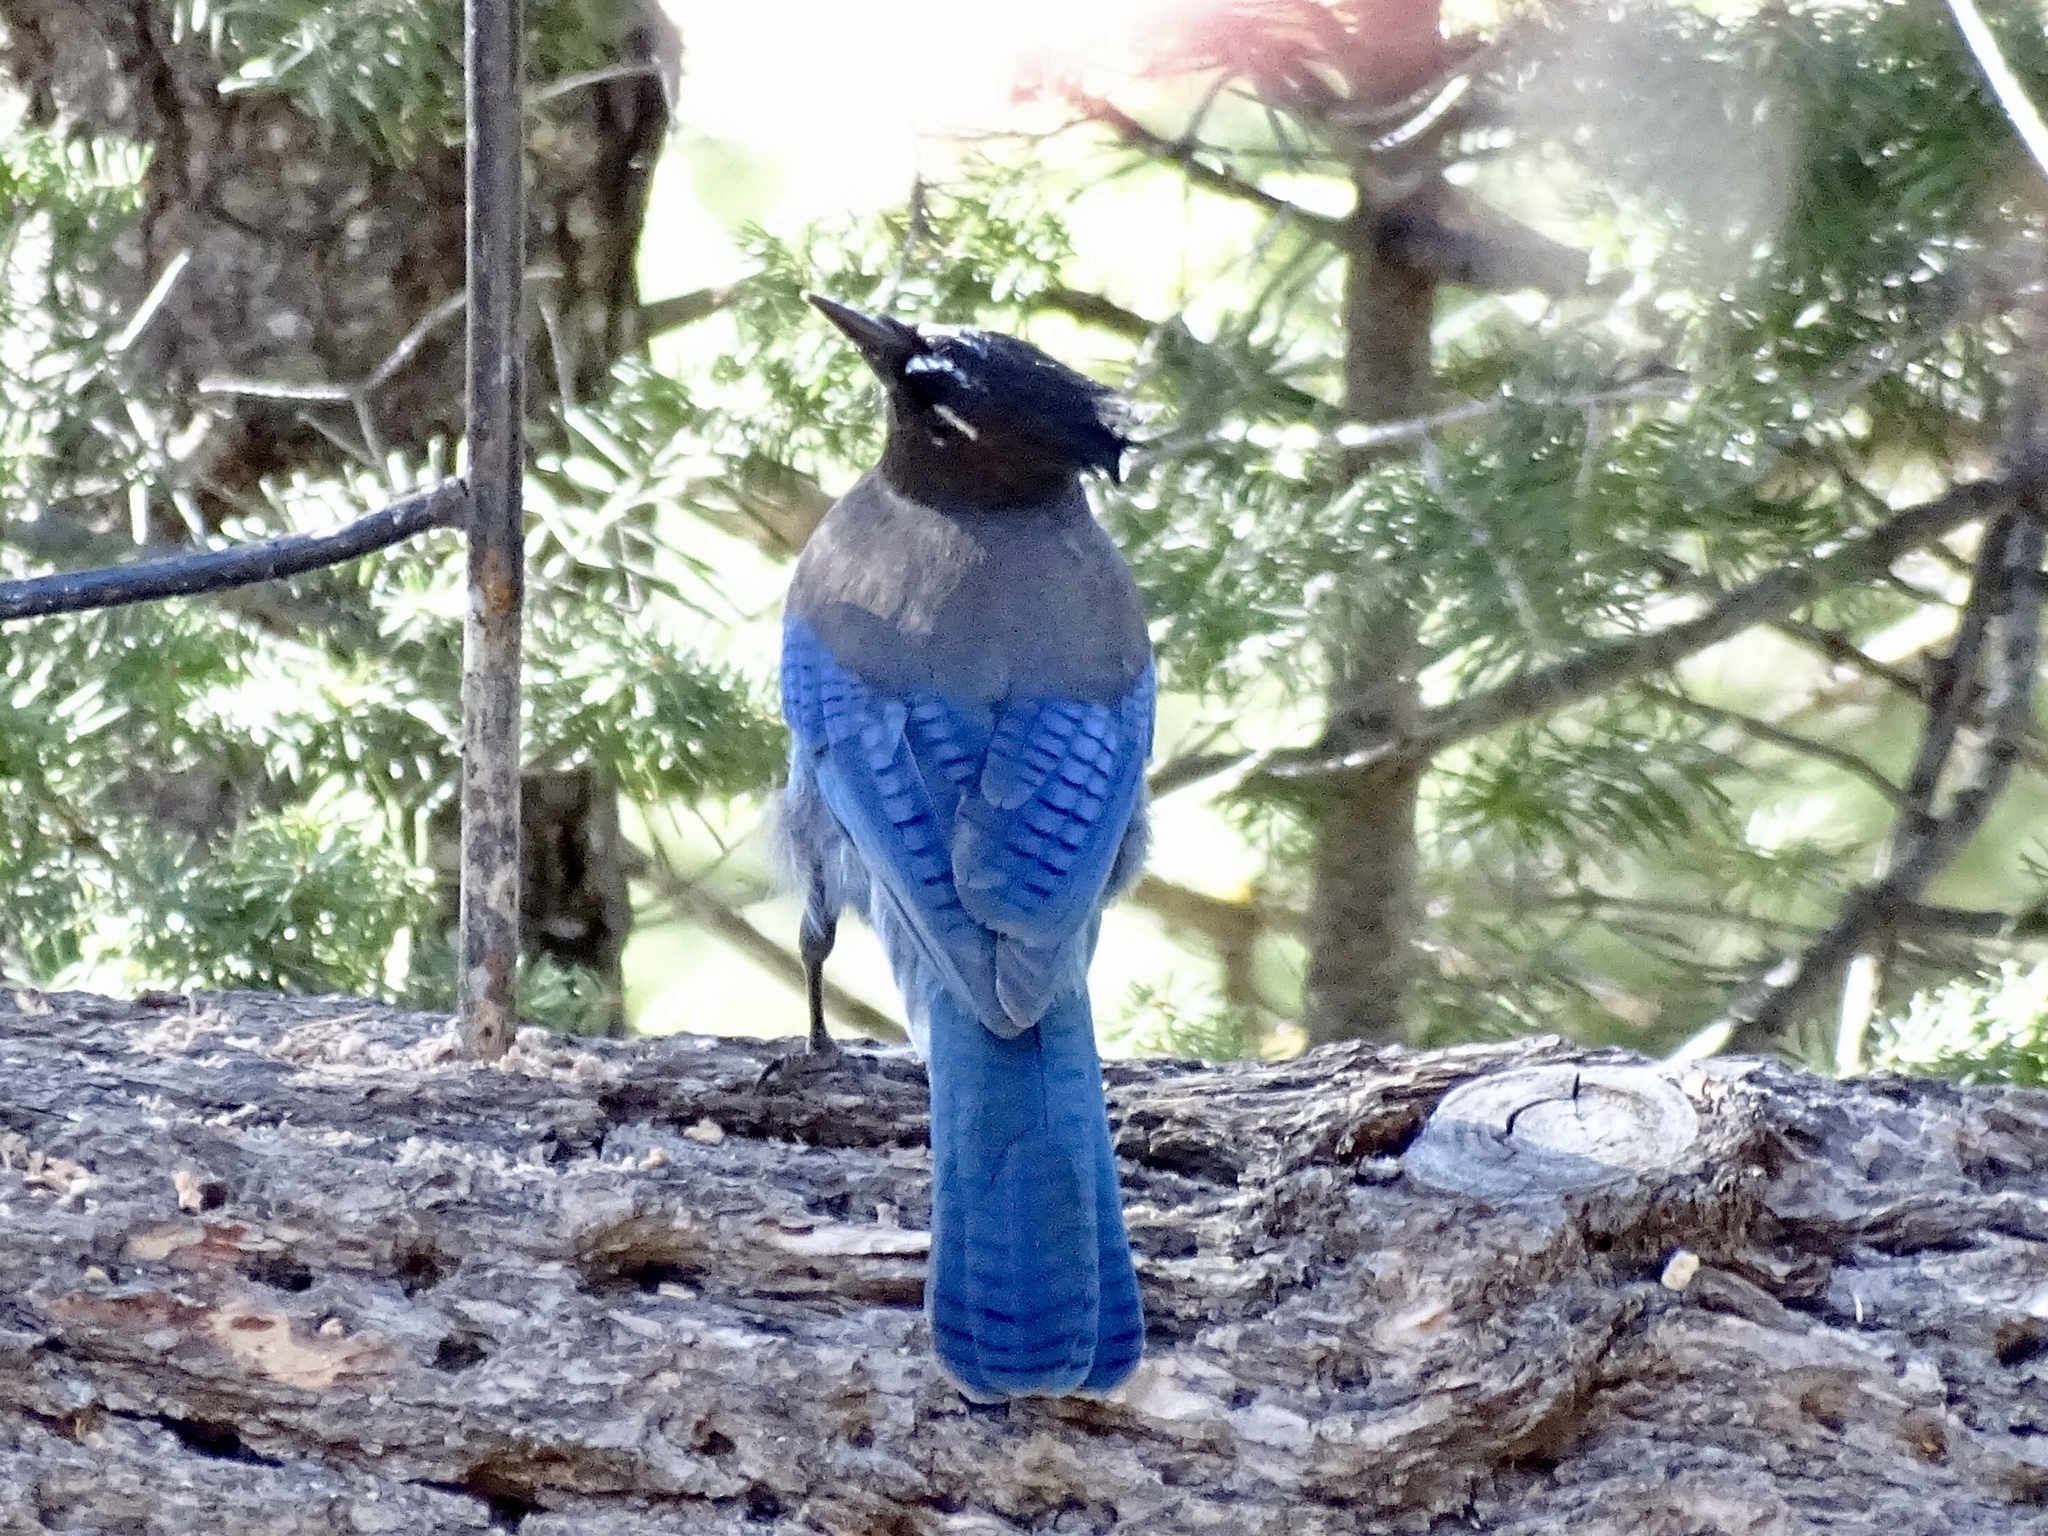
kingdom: Animalia
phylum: Chordata
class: Aves
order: Passeriformes
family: Corvidae
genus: Cyanocitta
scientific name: Cyanocitta stelleri
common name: Steller's jay
